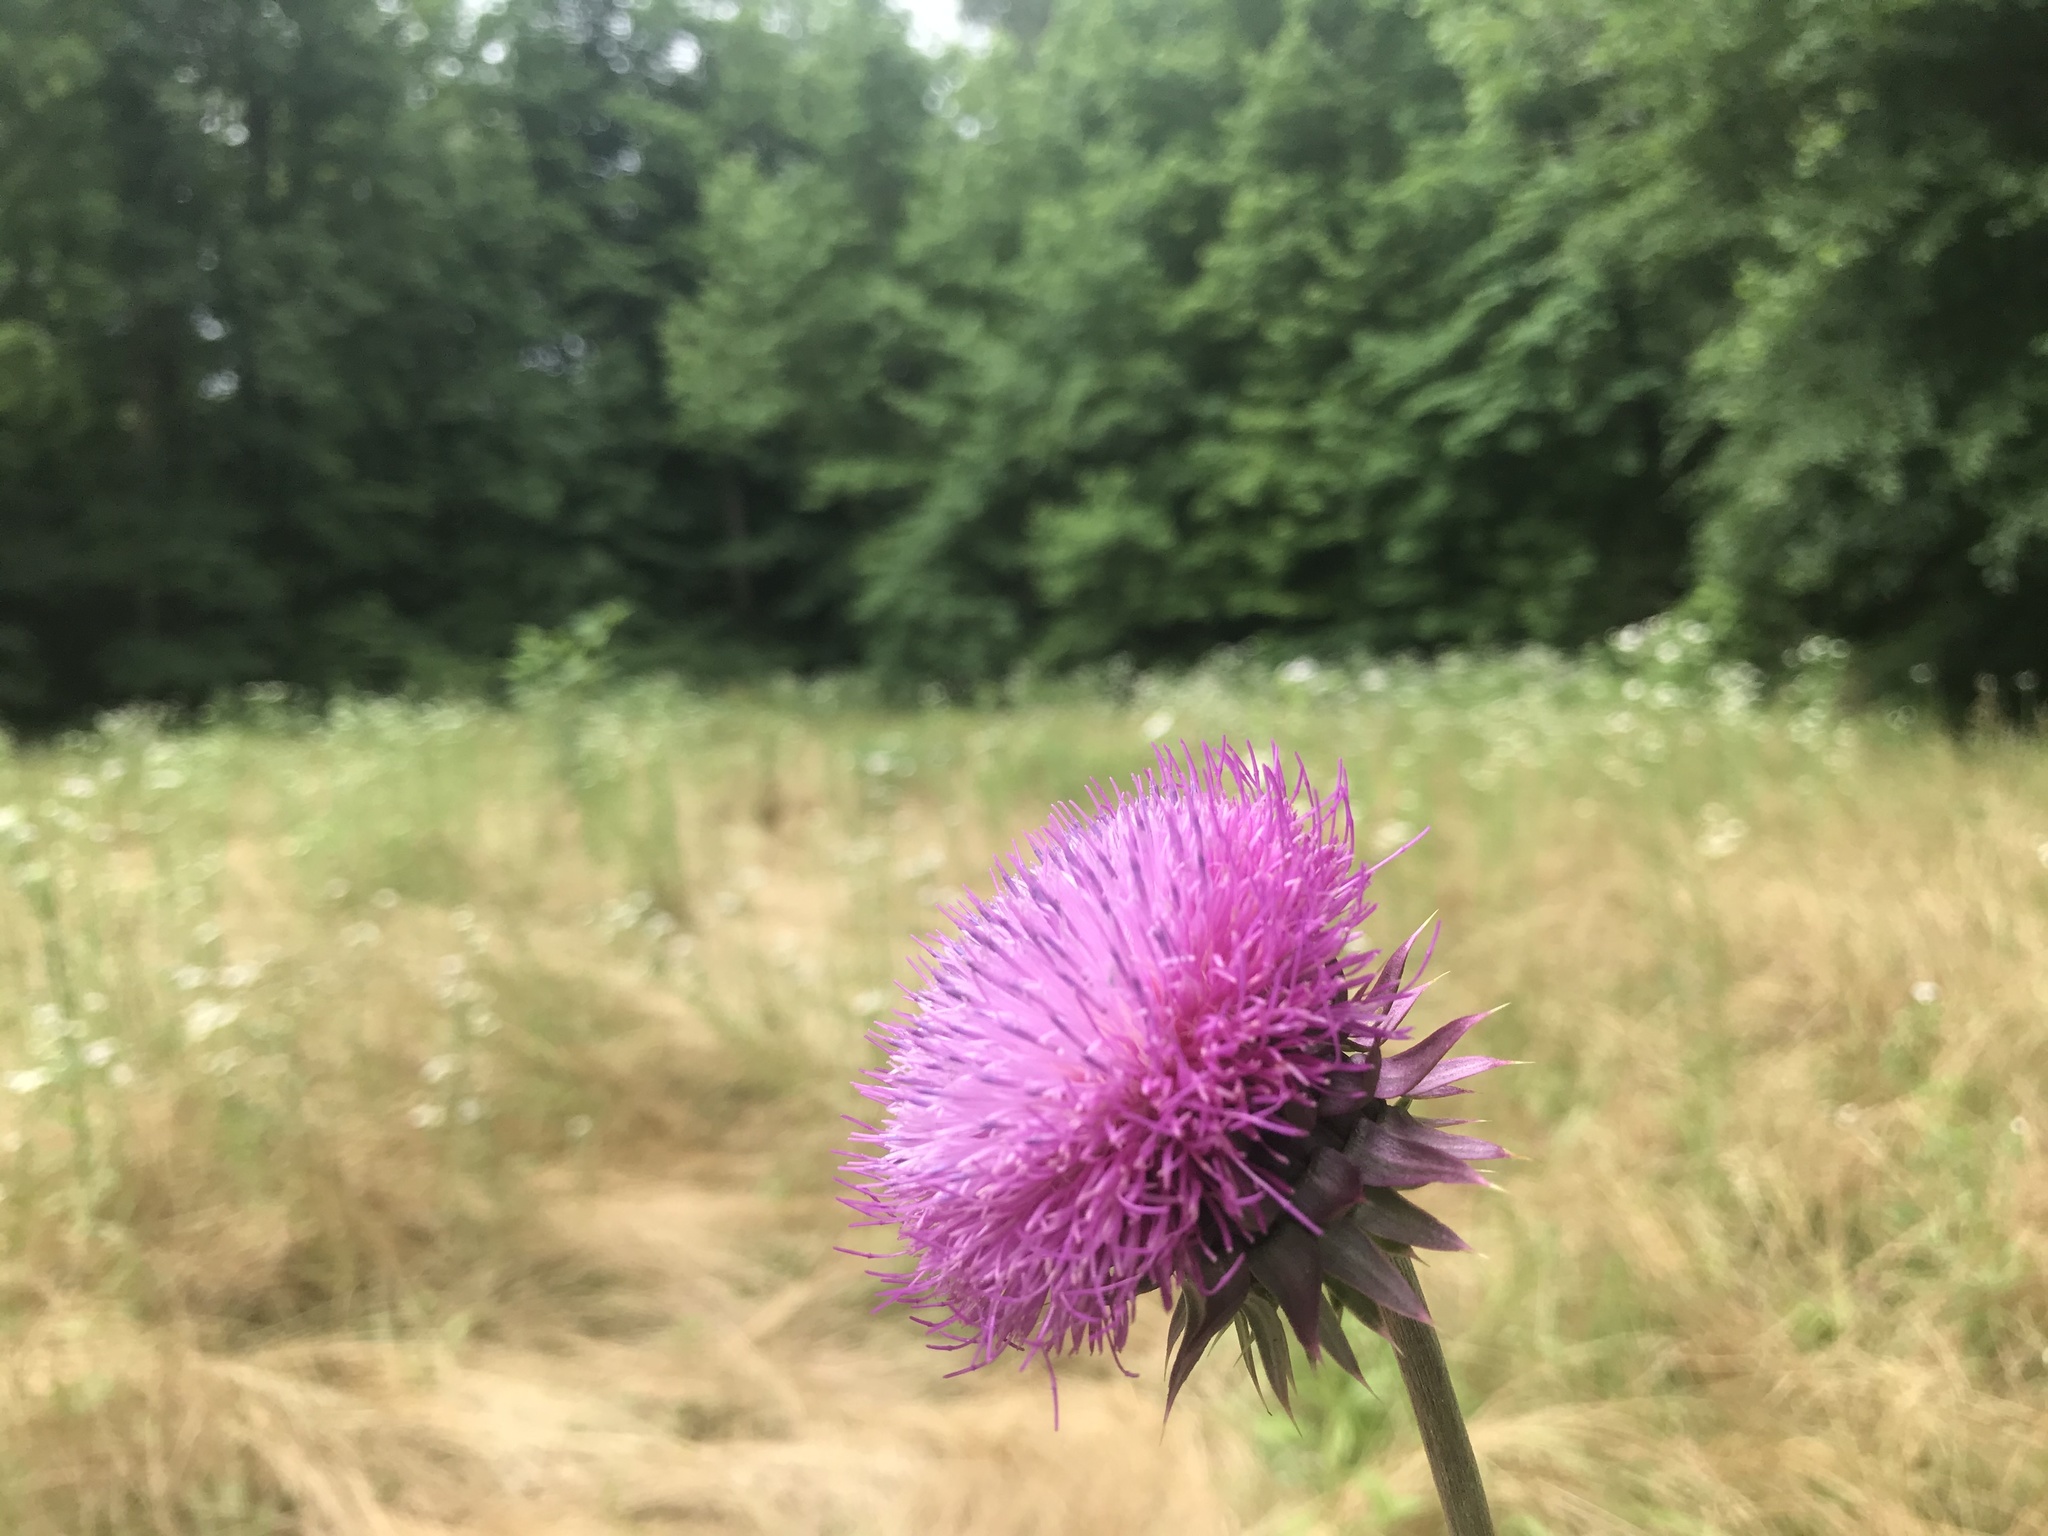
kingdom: Plantae
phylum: Tracheophyta
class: Magnoliopsida
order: Asterales
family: Asteraceae
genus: Carduus
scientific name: Carduus nutans
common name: Musk thistle
